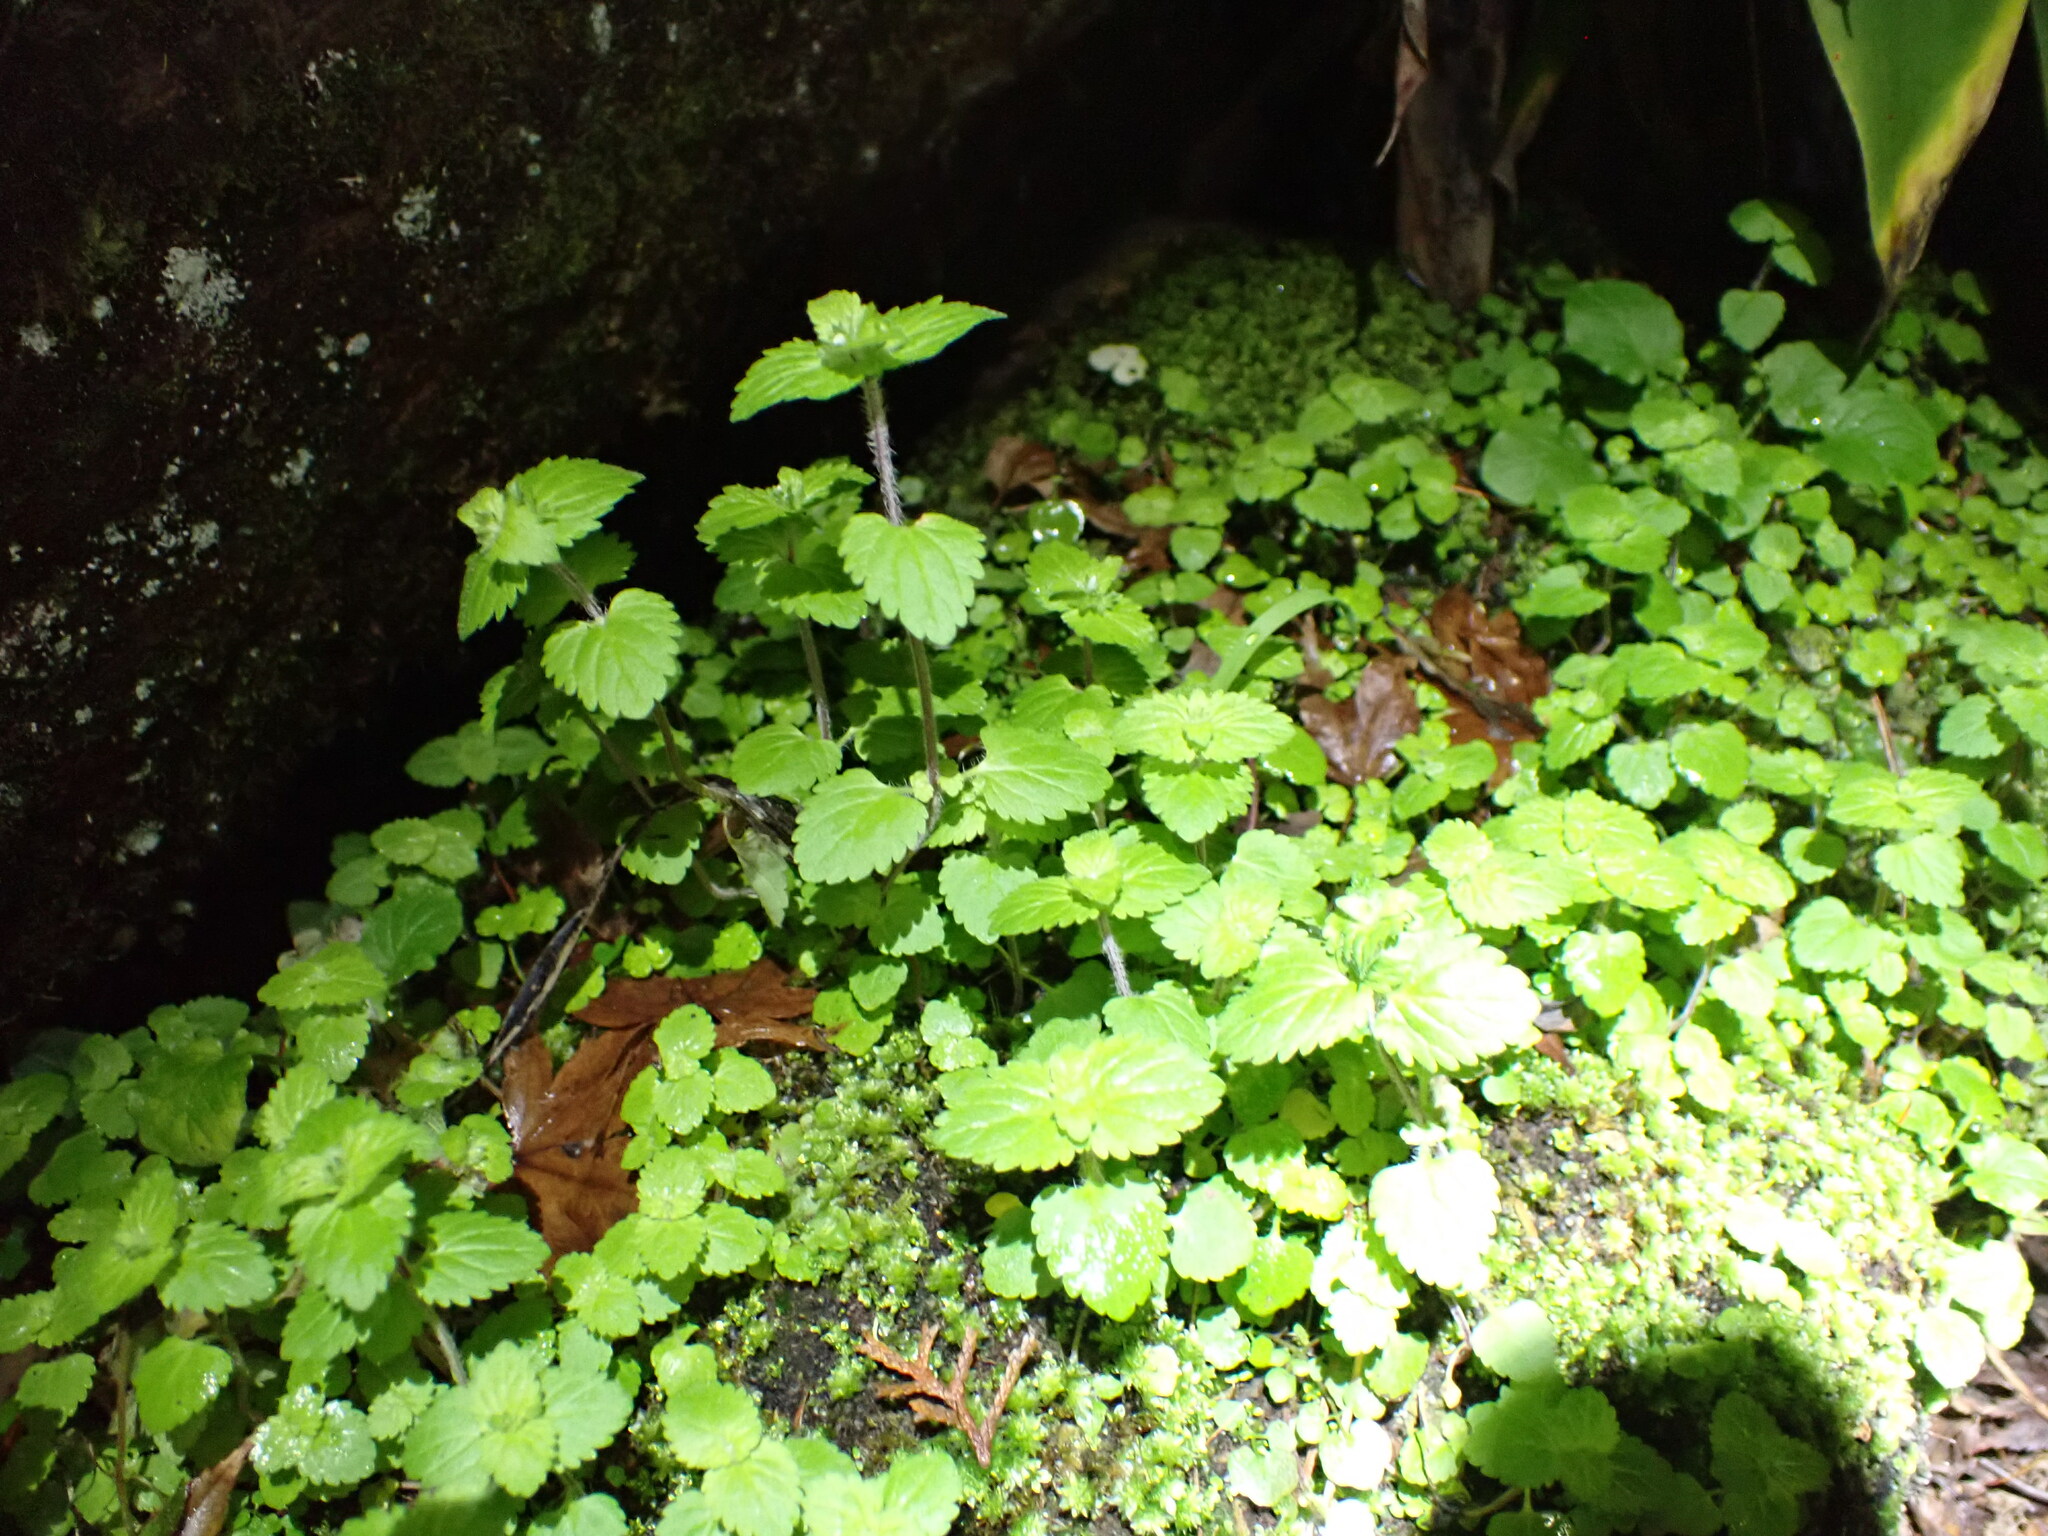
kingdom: Plantae
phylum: Tracheophyta
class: Magnoliopsida
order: Lamiales
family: Plantaginaceae
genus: Veronica
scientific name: Veronica javanica
